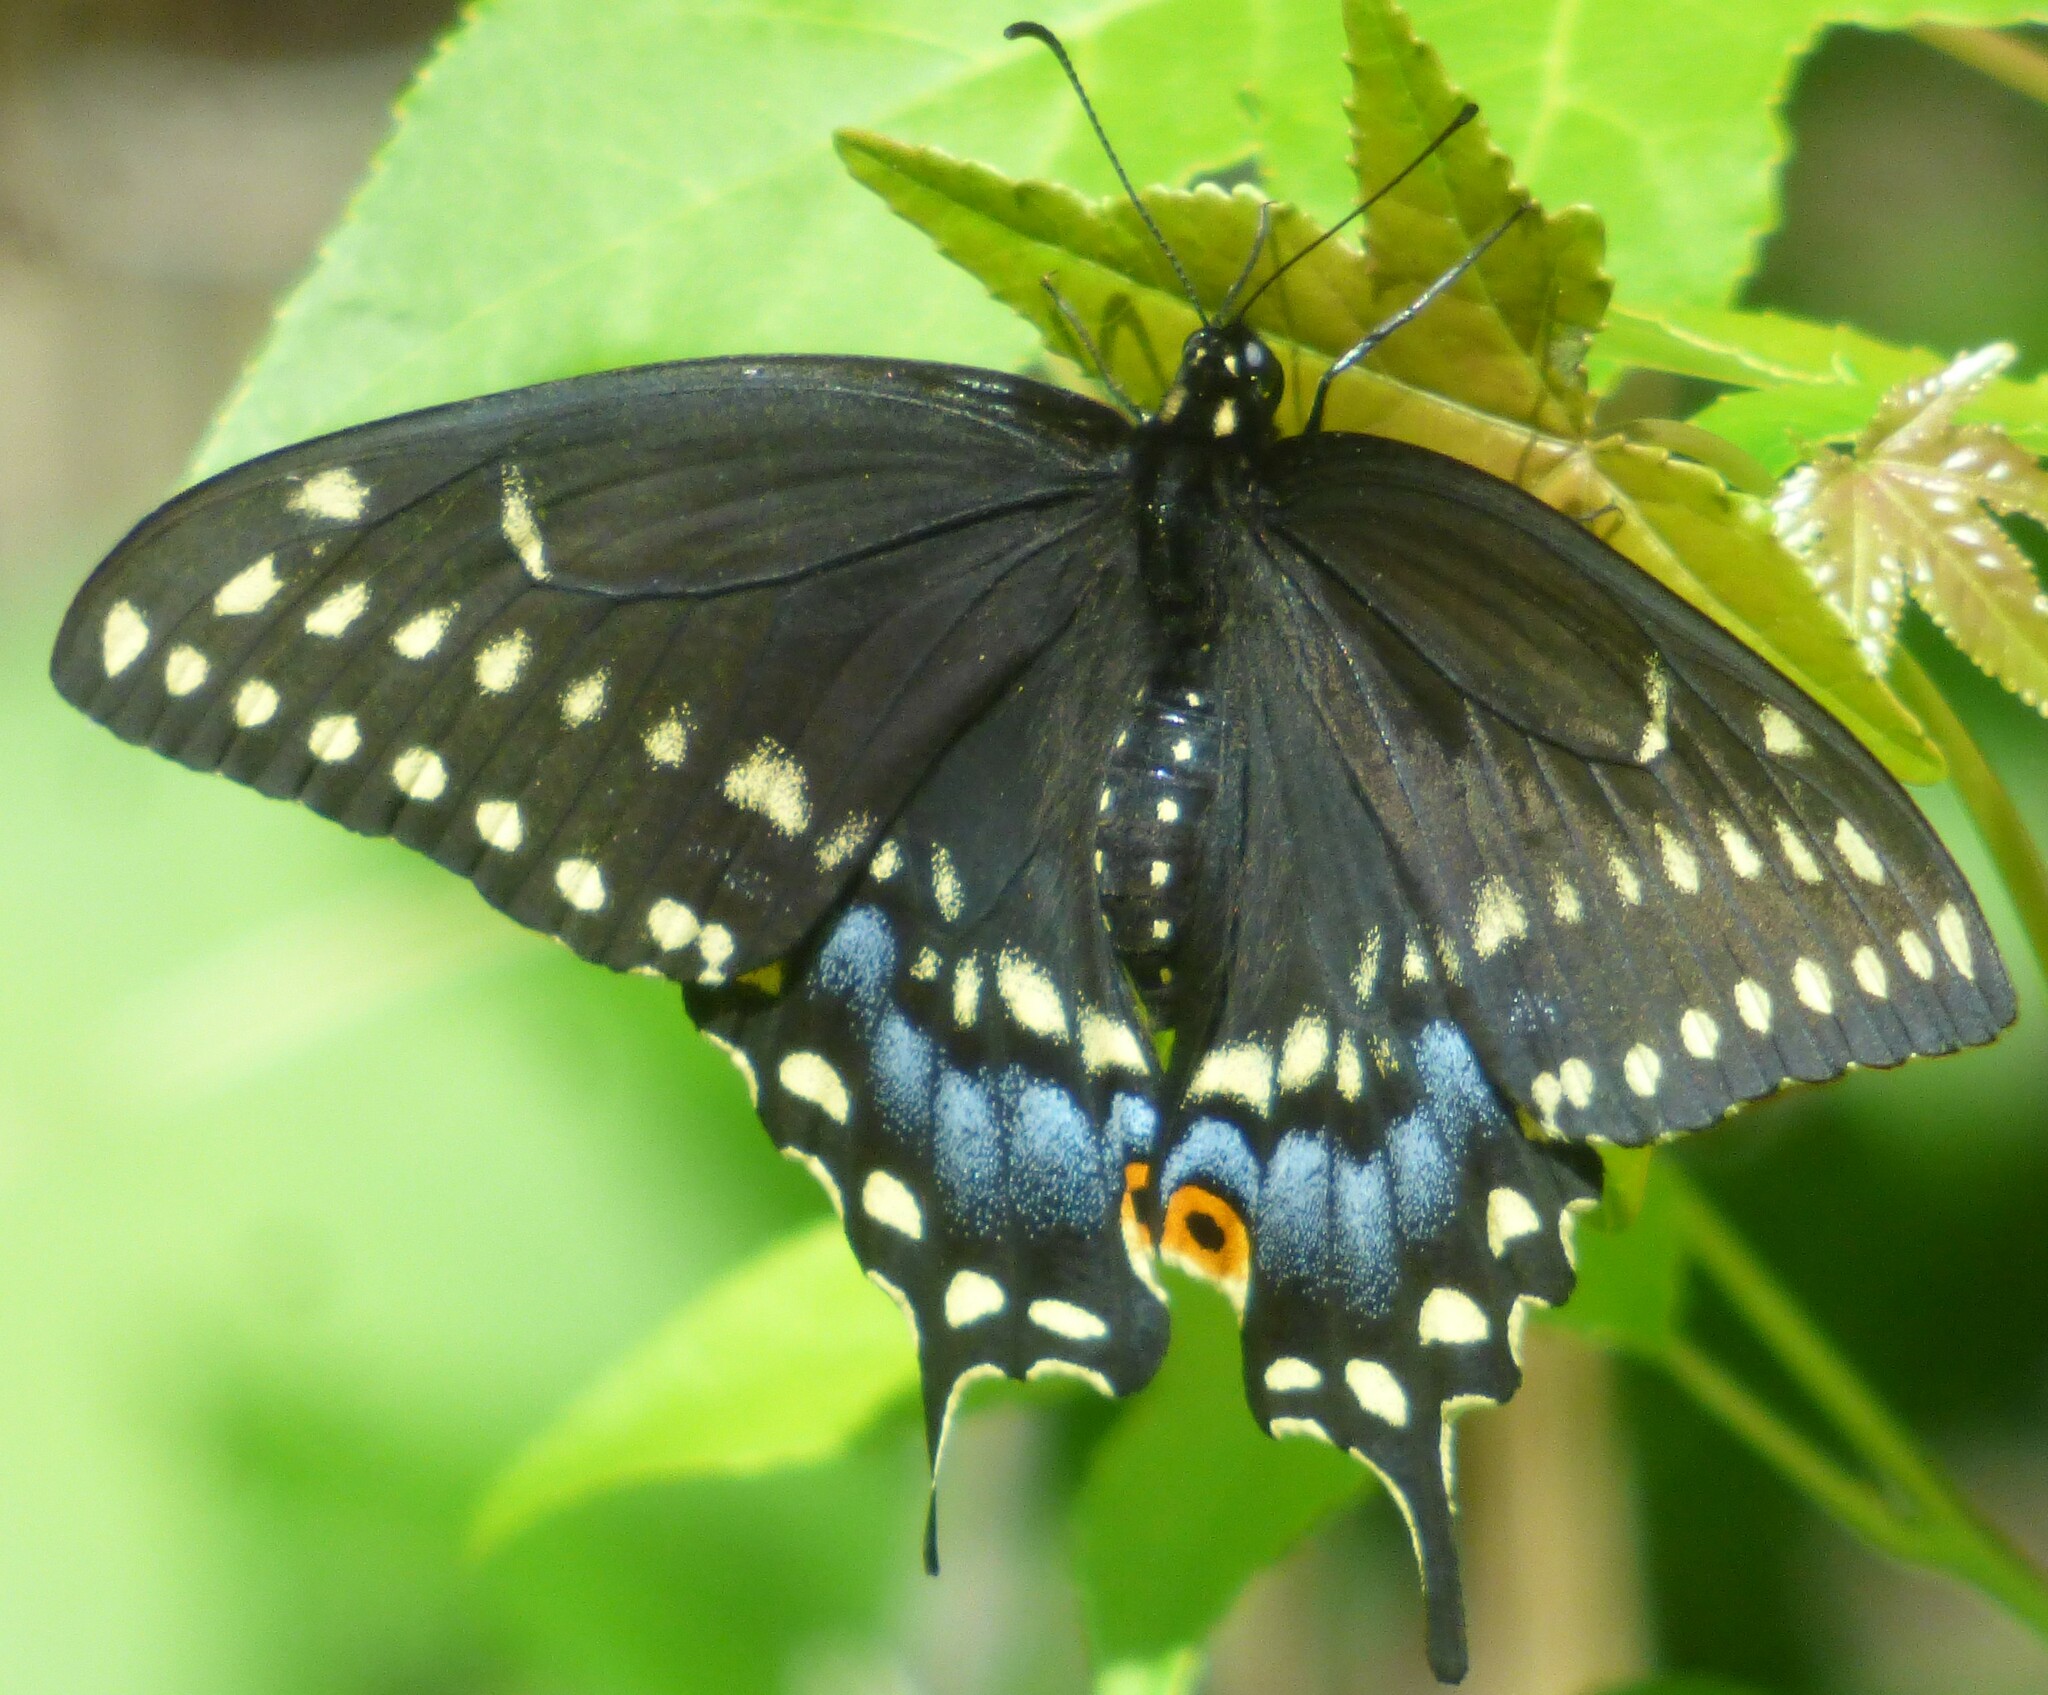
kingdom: Animalia
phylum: Arthropoda
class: Insecta
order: Lepidoptera
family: Papilionidae
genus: Papilio
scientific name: Papilio polyxenes
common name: Black swallowtail
